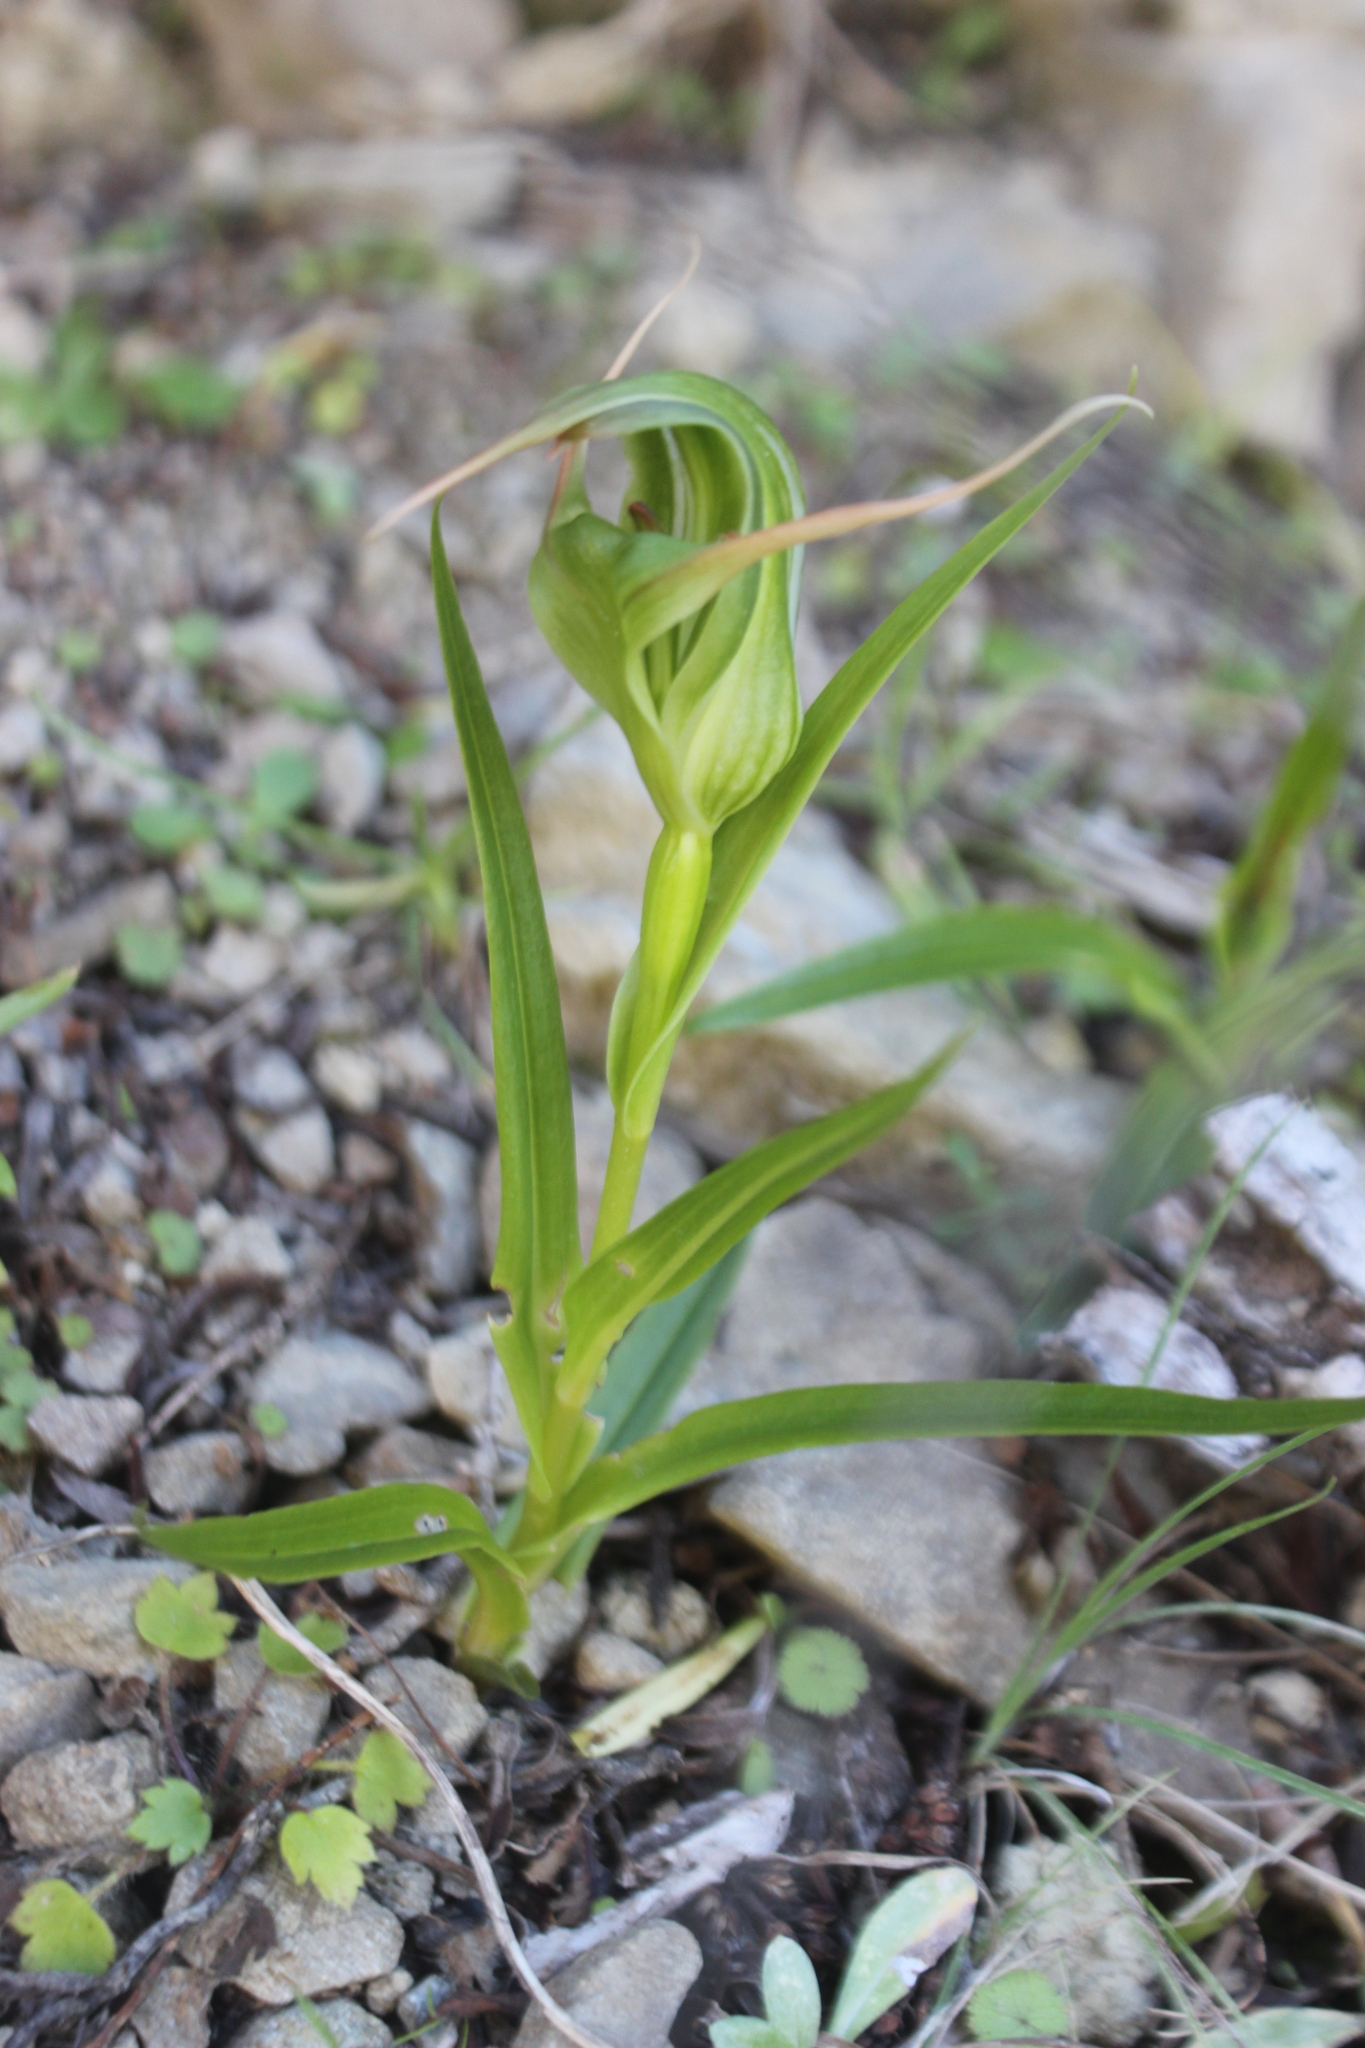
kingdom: Plantae
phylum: Tracheophyta
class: Liliopsida
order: Asparagales
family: Orchidaceae
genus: Pterostylis
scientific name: Pterostylis banksii
